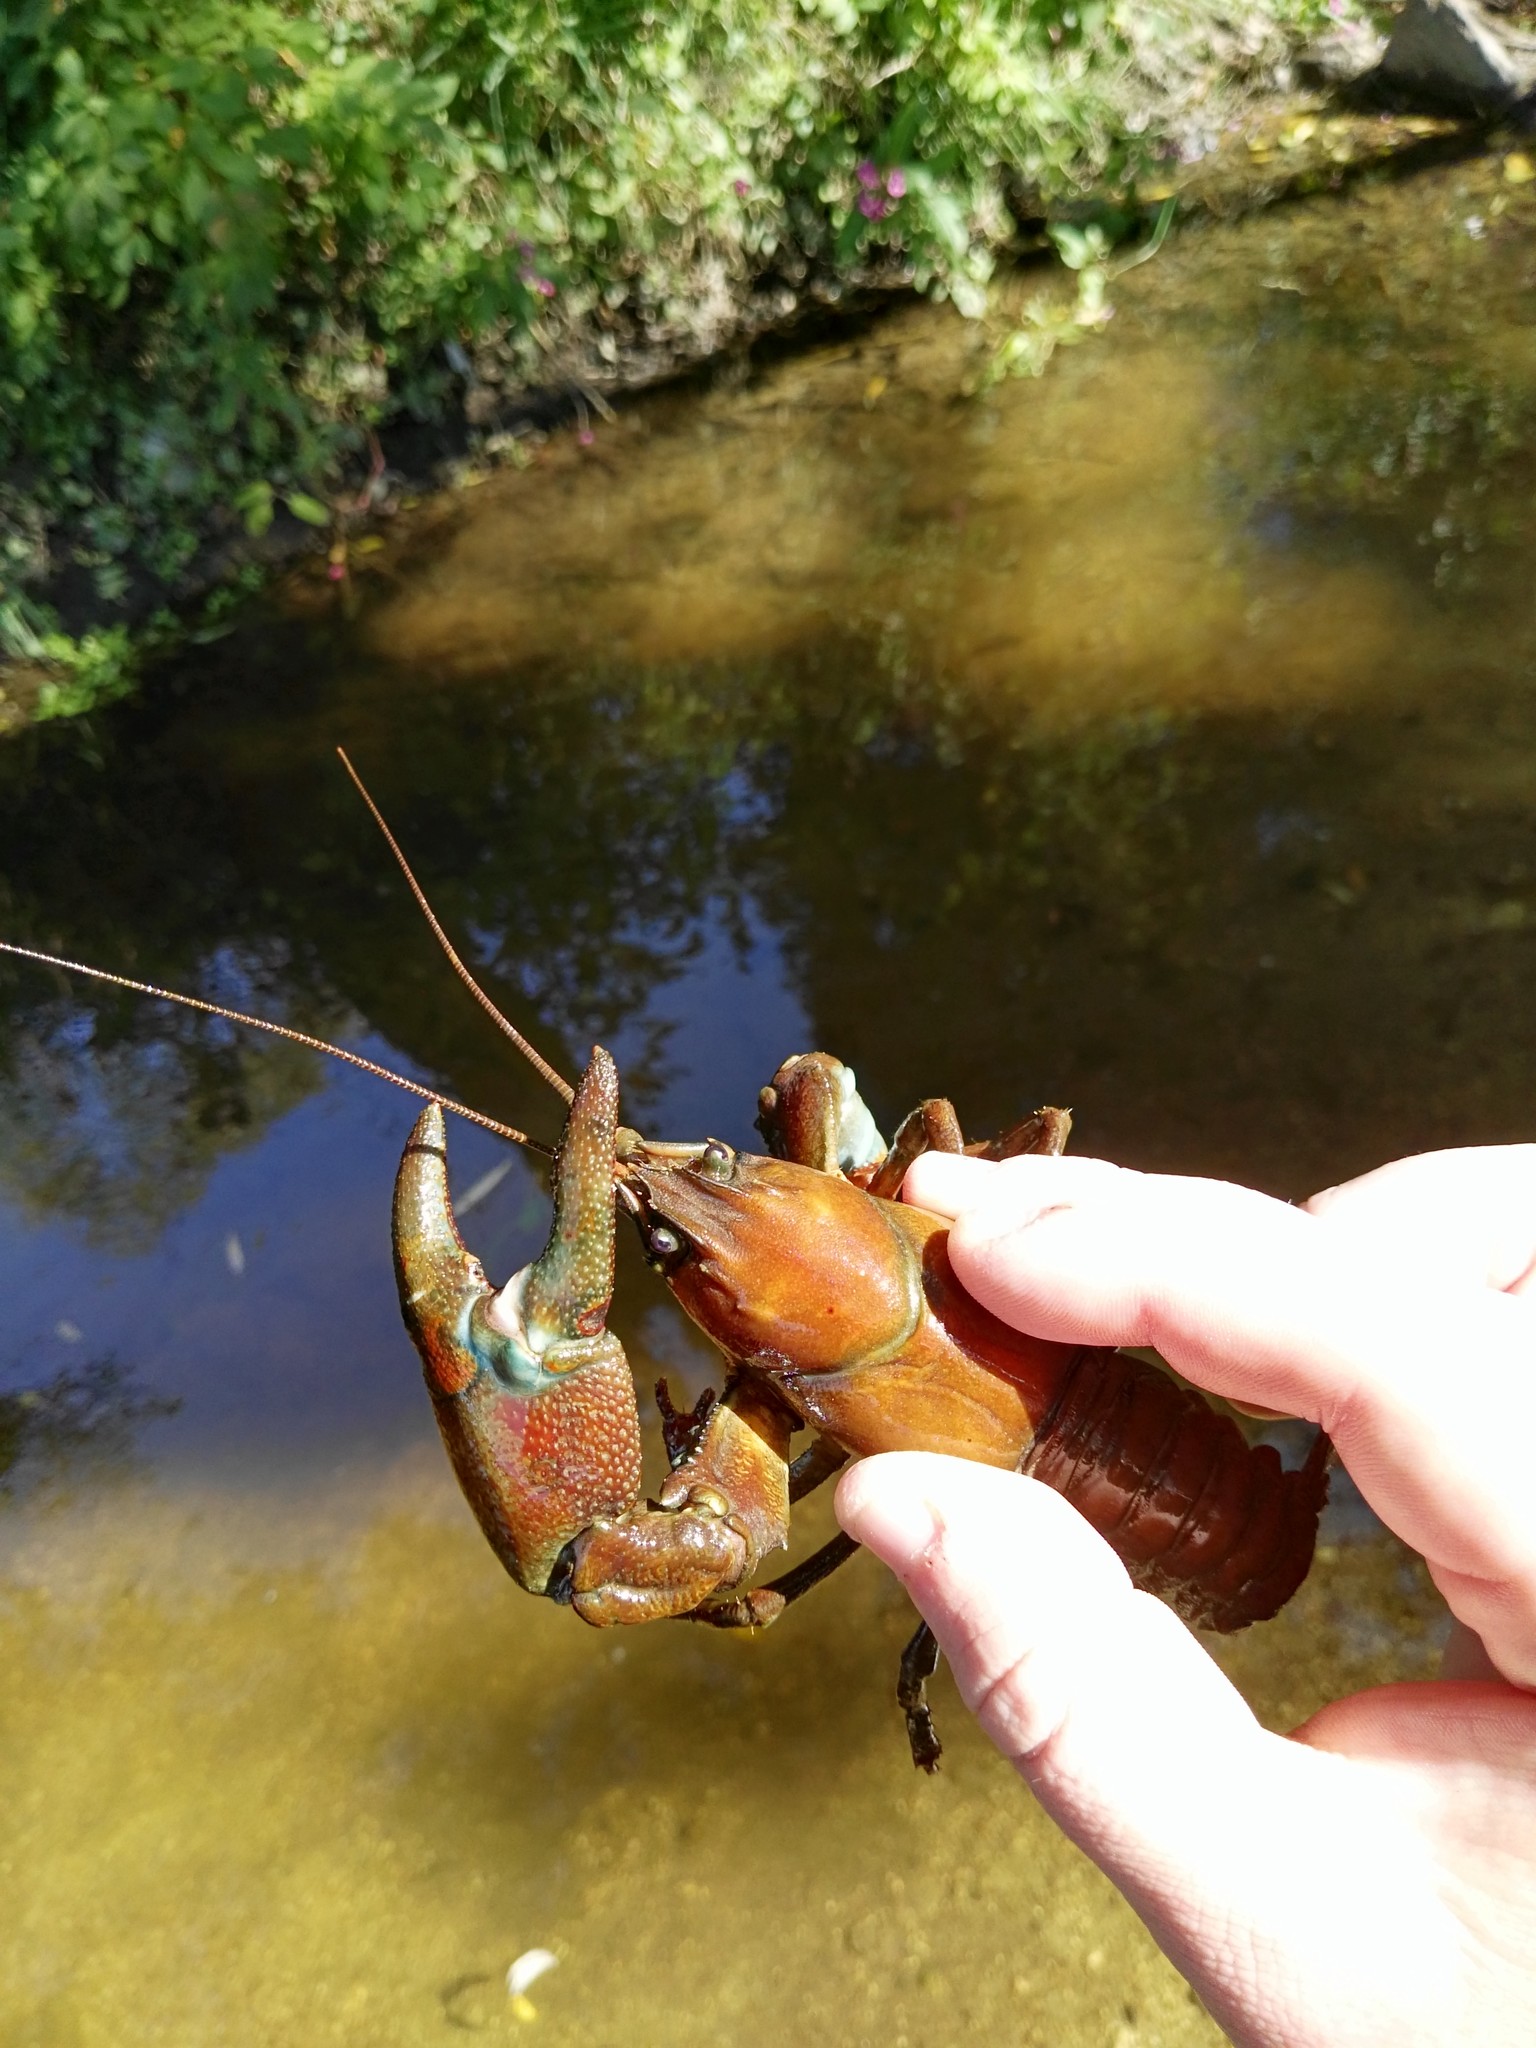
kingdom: Animalia
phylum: Arthropoda
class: Malacostraca
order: Decapoda
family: Astacidae
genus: Pacifastacus
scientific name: Pacifastacus leniusculus
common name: Signal crayfish
